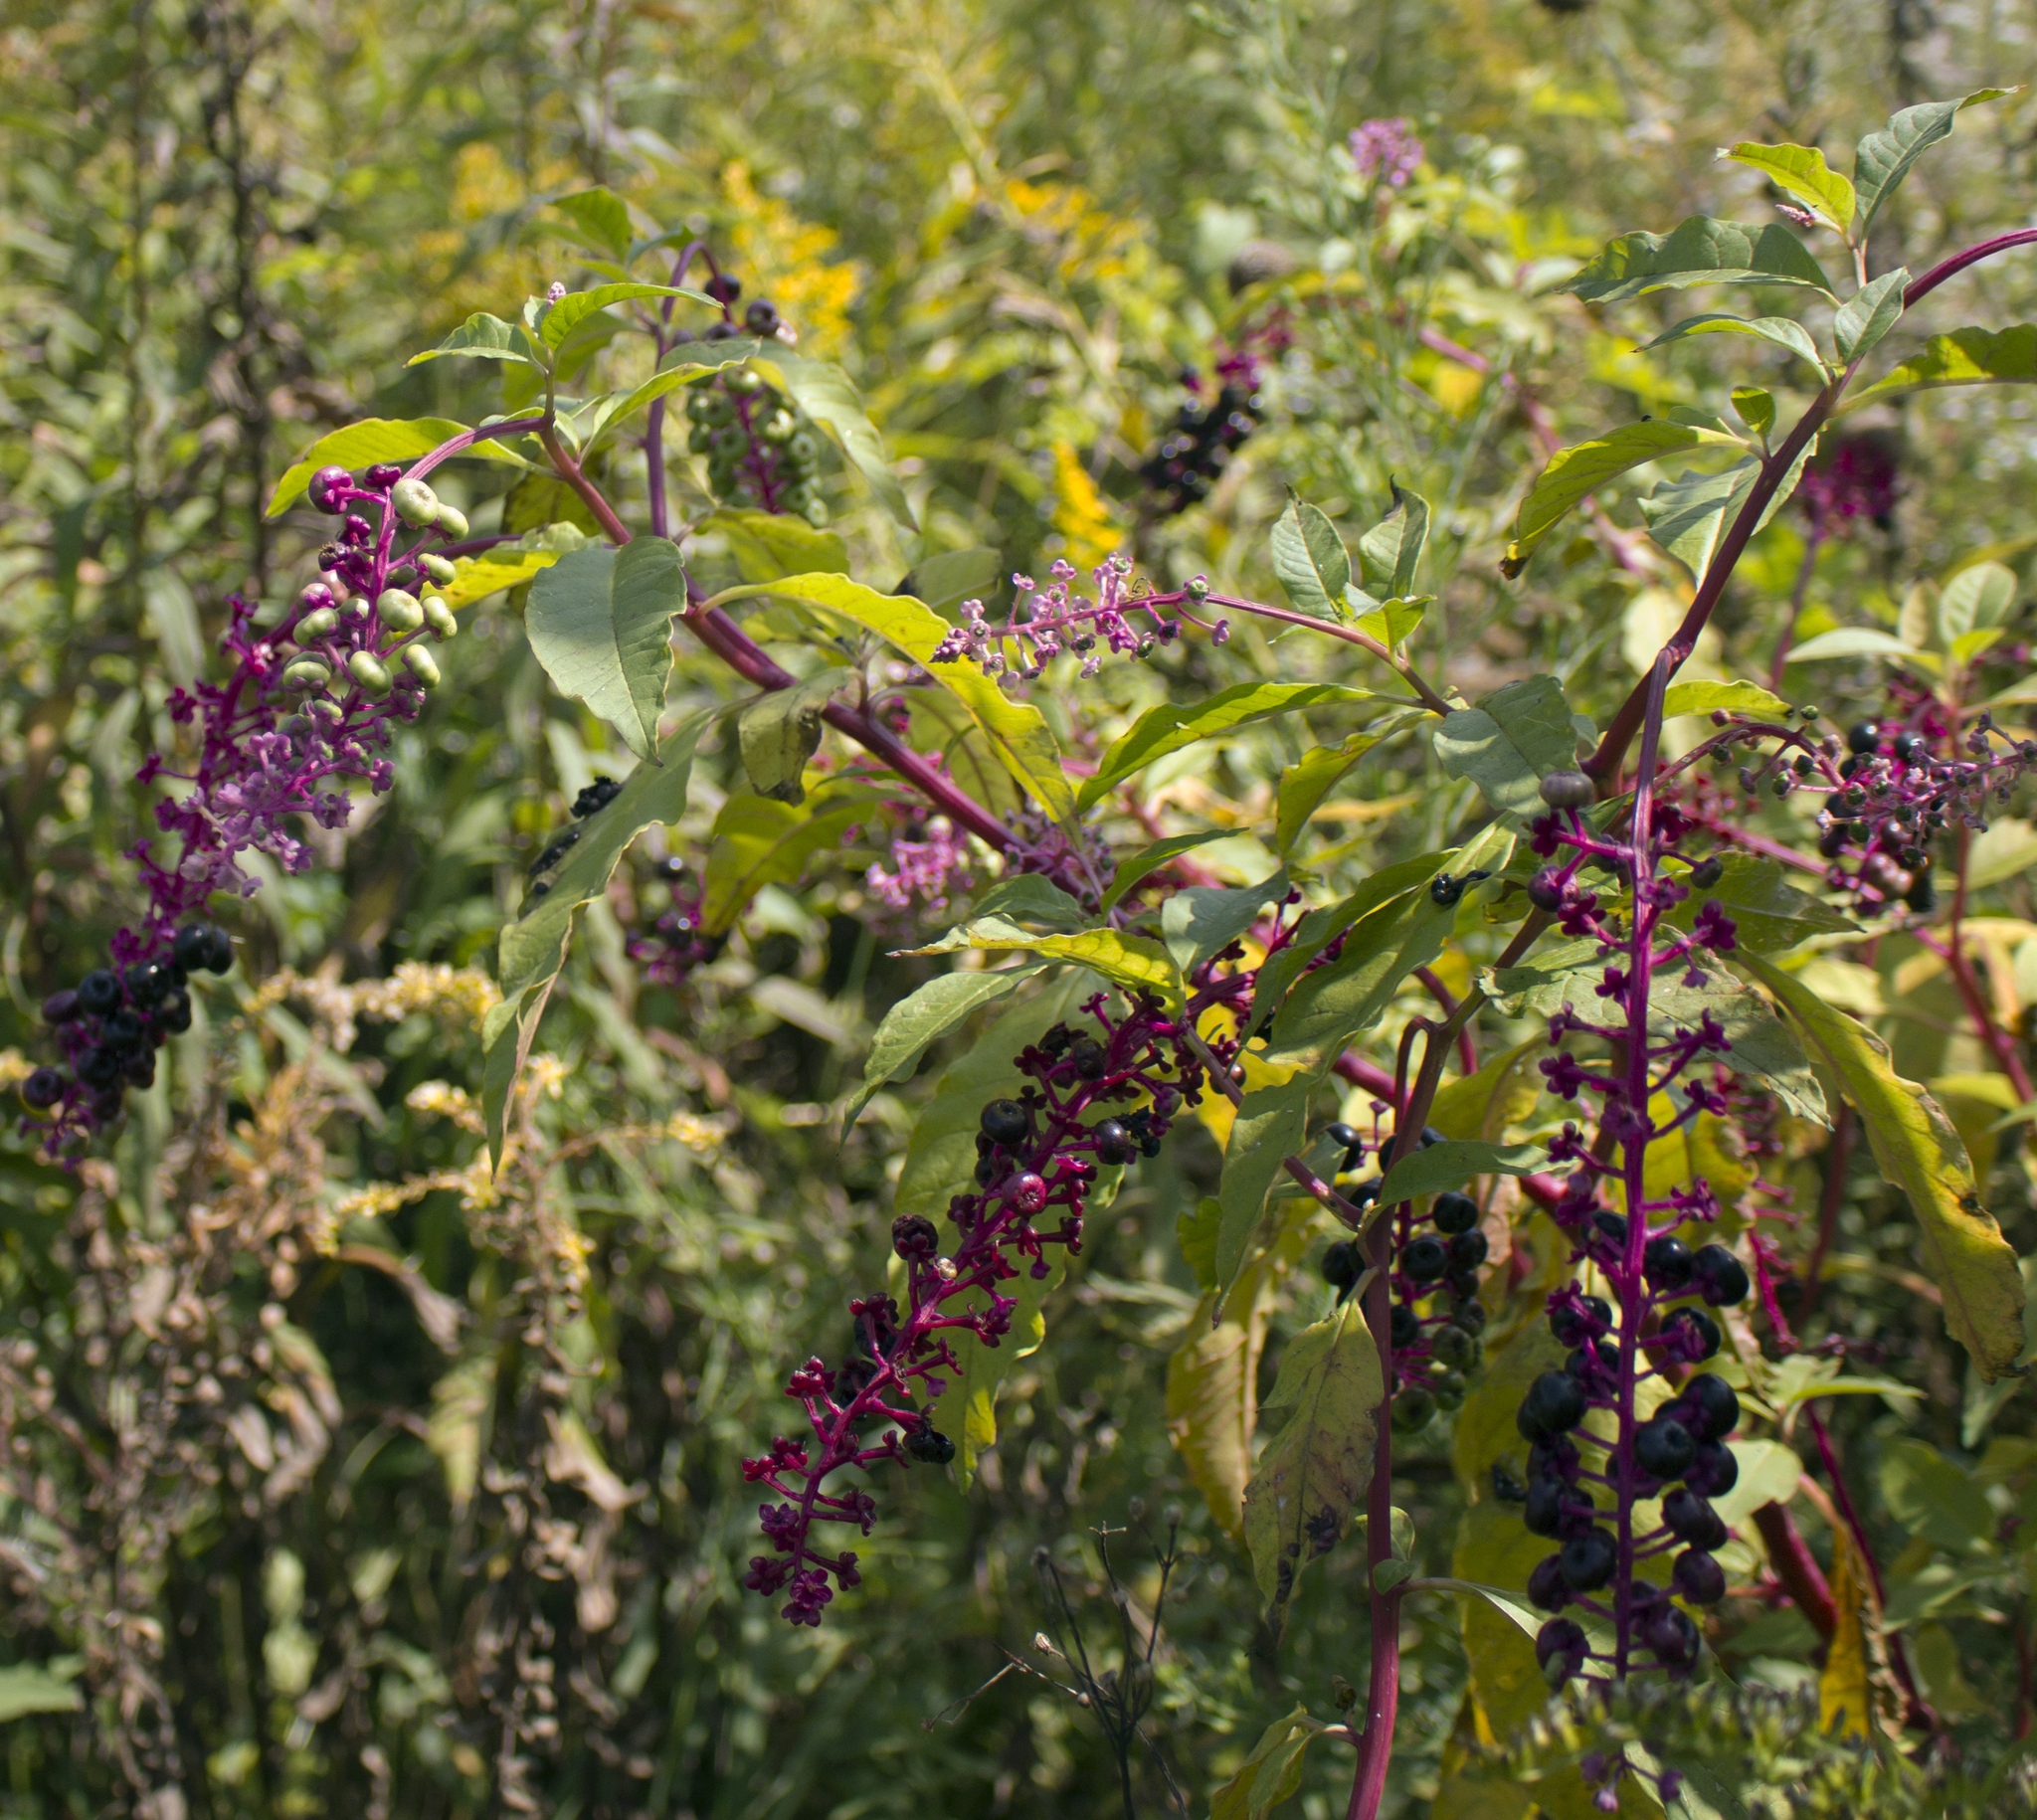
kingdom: Plantae
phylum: Tracheophyta
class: Magnoliopsida
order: Caryophyllales
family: Phytolaccaceae
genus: Phytolacca
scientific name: Phytolacca americana
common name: American pokeweed
